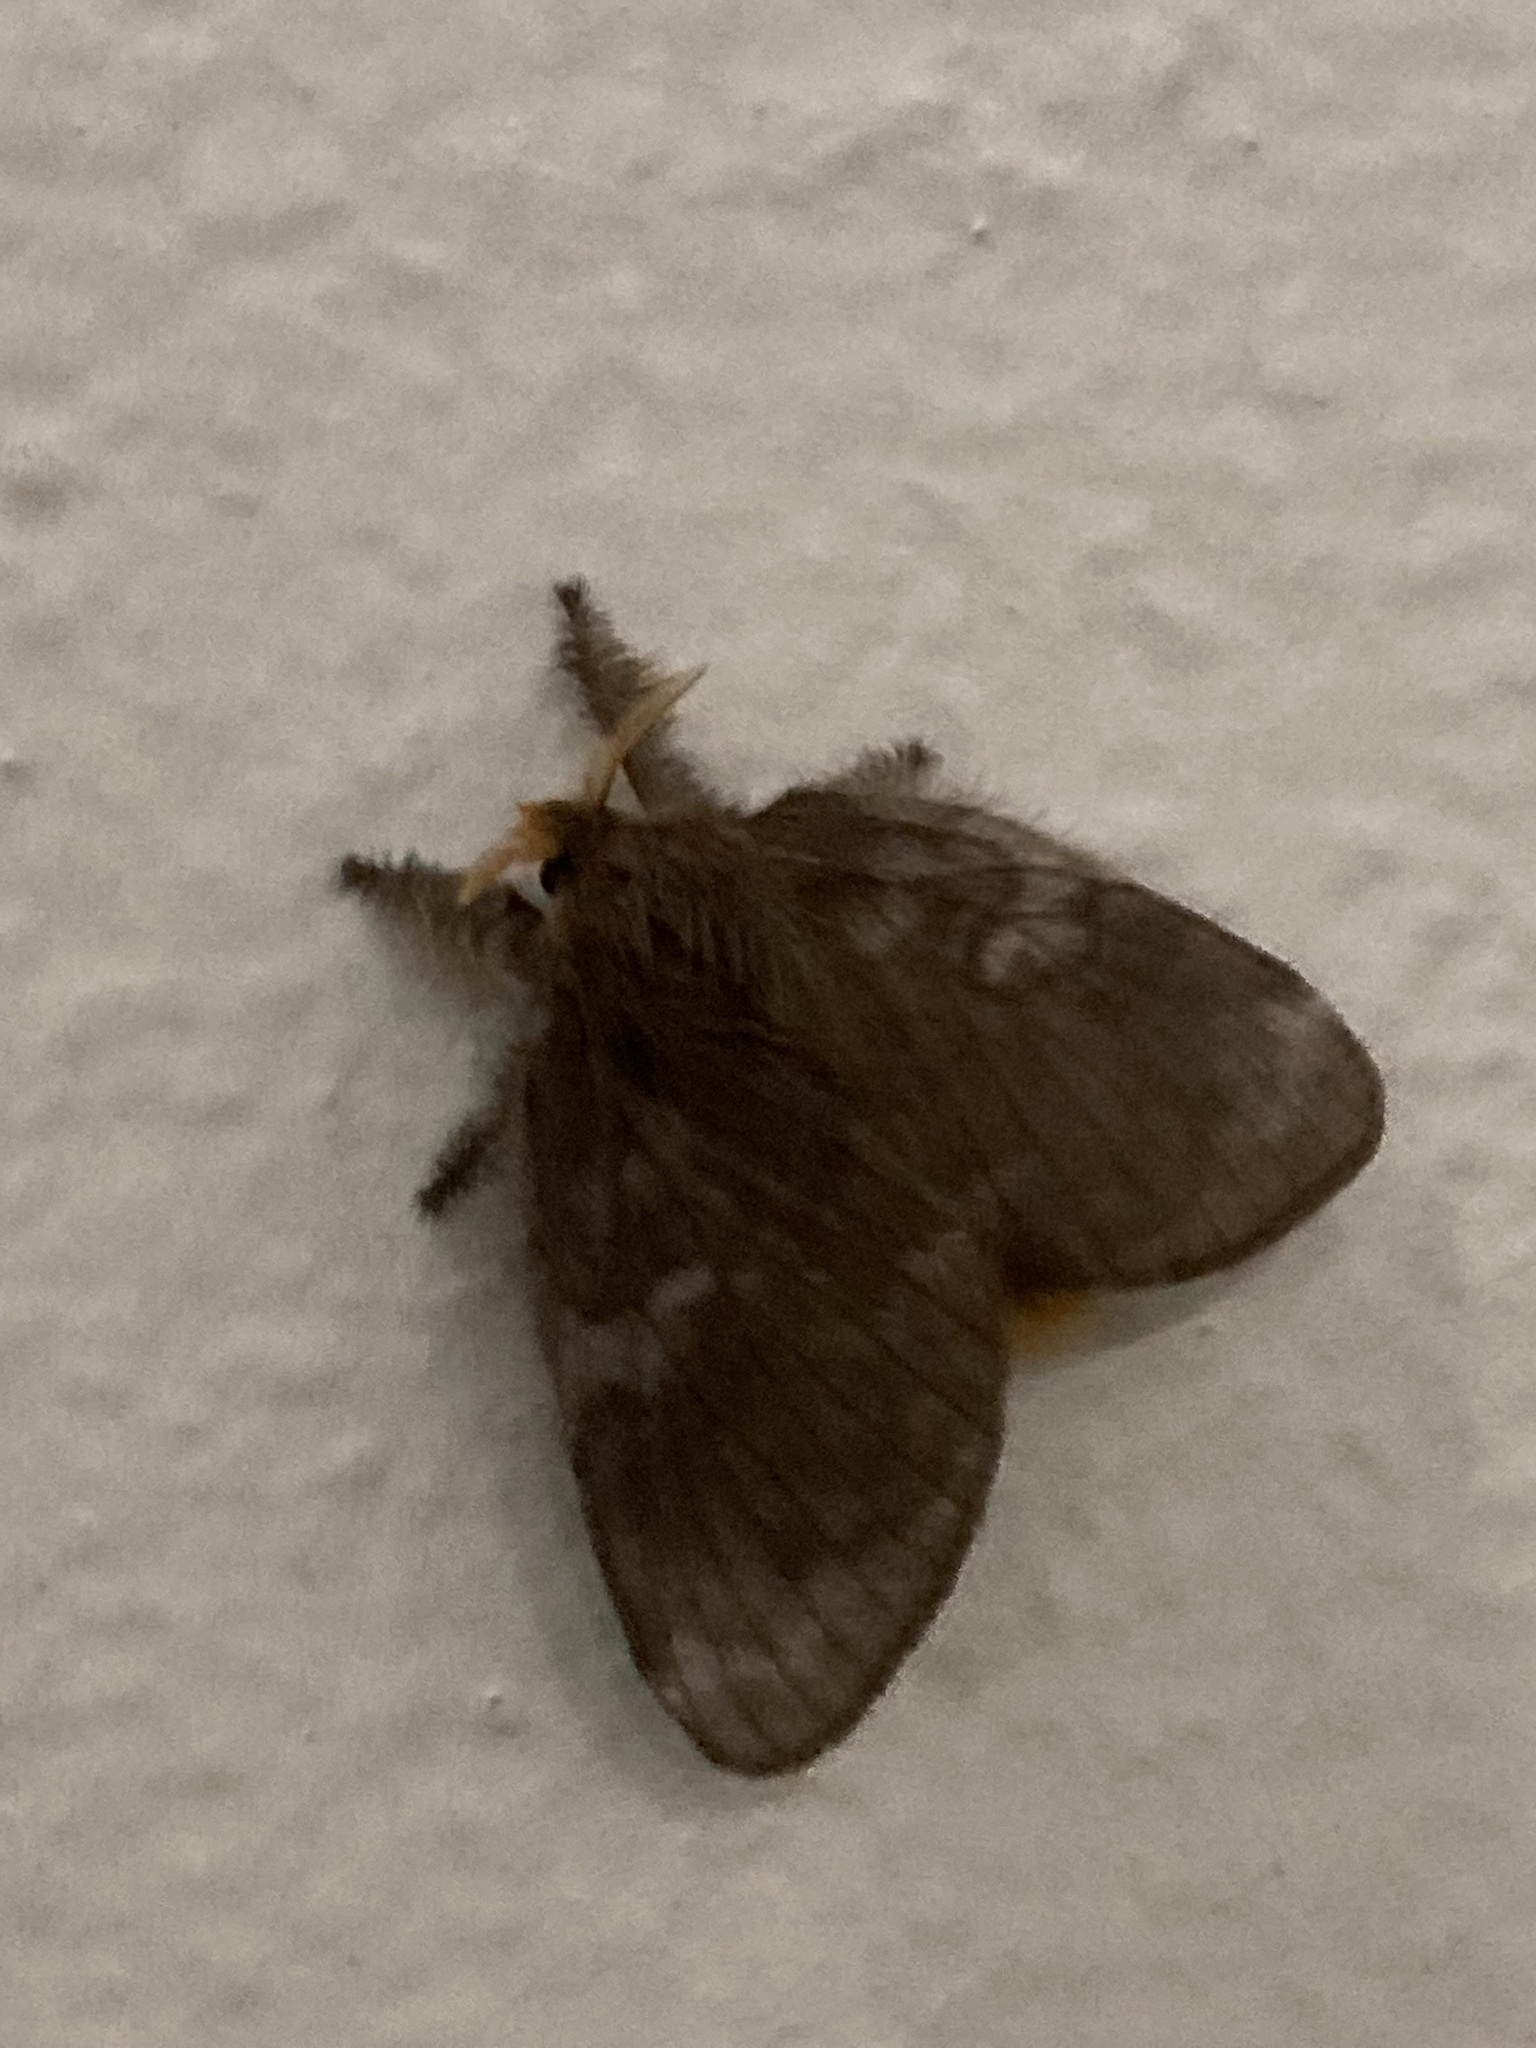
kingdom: Animalia
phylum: Arthropoda
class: Insecta
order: Lepidoptera
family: Lasiocampidae
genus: Euglyphis
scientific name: Euglyphis fibra
